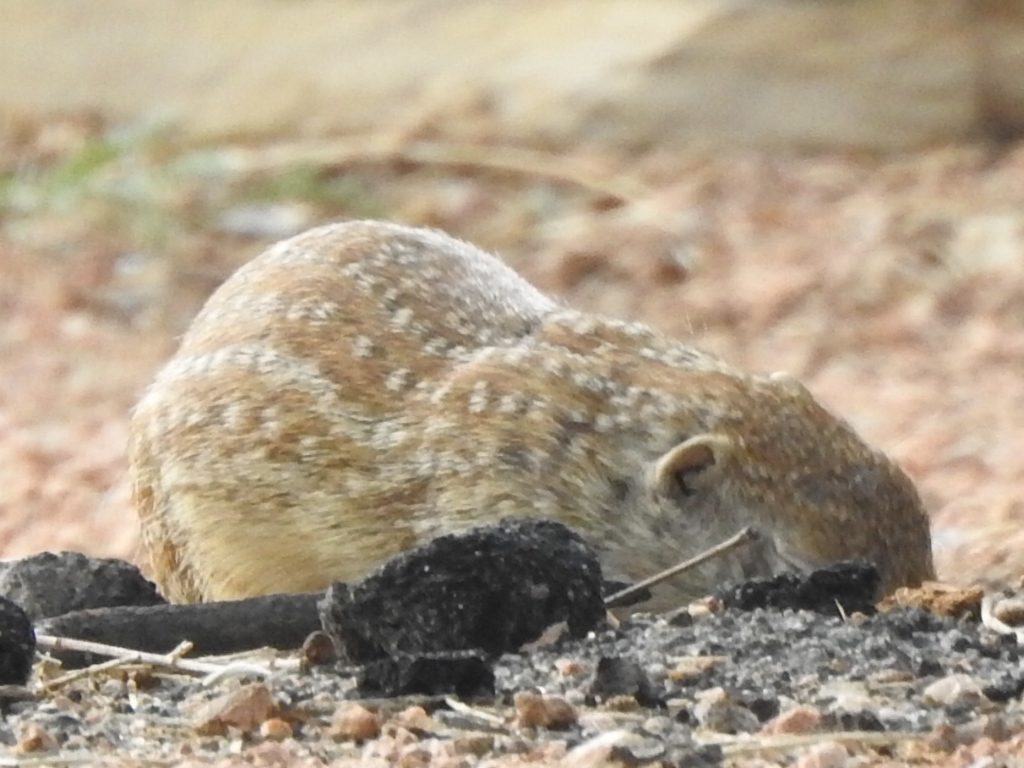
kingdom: Animalia
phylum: Chordata
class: Mammalia
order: Rodentia
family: Sciuridae
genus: Ictidomys
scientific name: Ictidomys parvidens
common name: Rio grande ground squirrel
